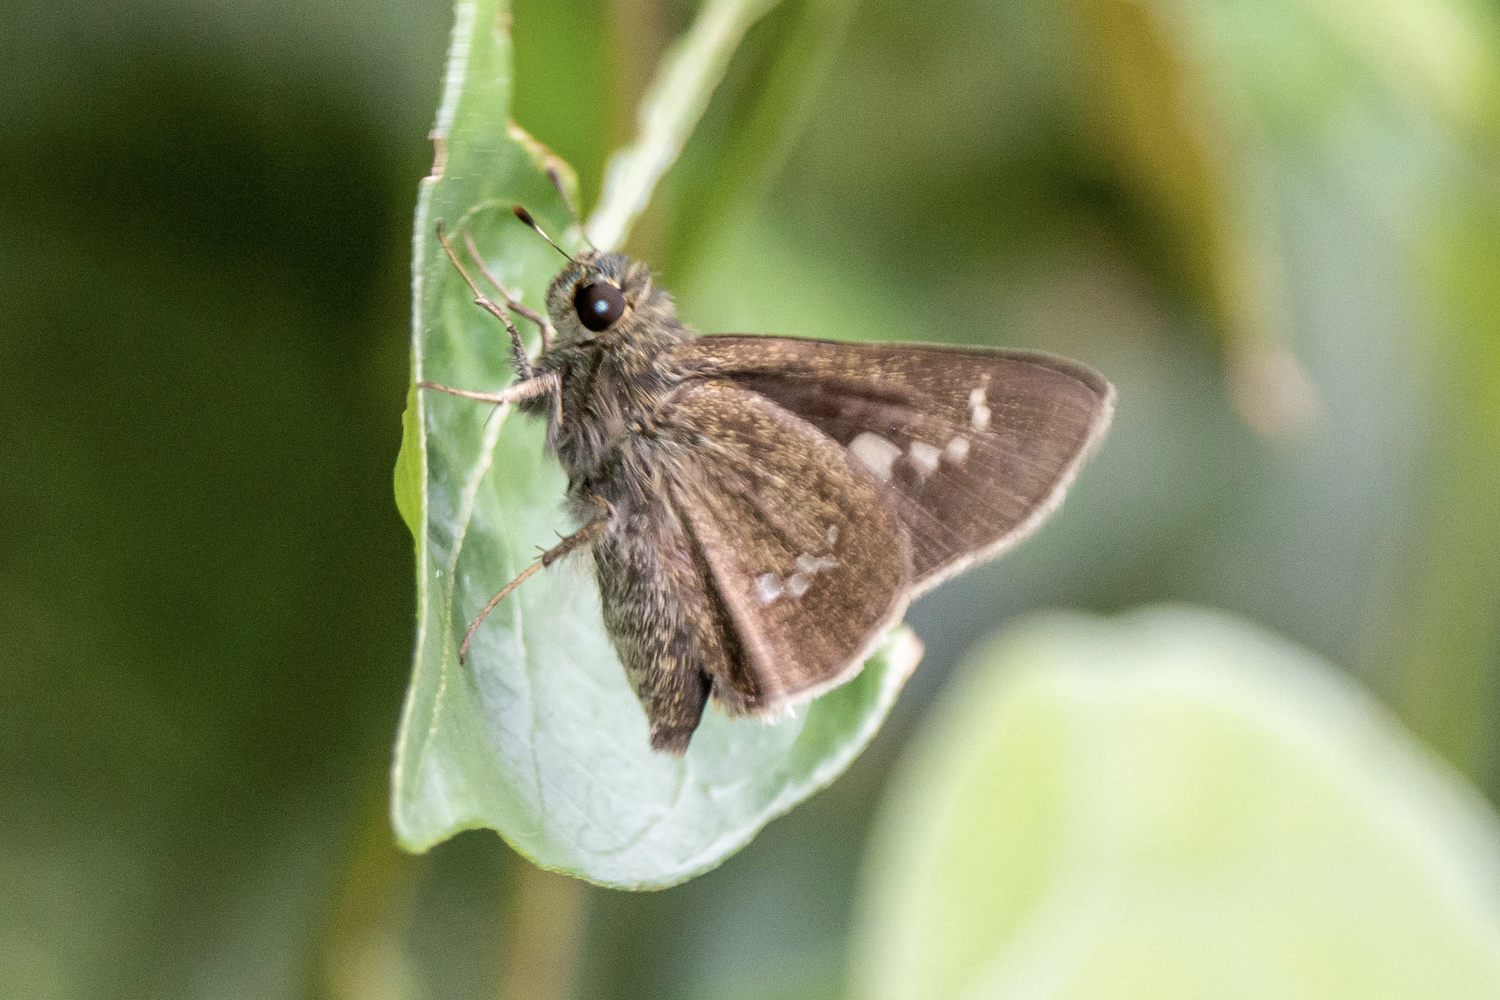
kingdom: Animalia
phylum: Arthropoda
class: Insecta
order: Lepidoptera
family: Hesperiidae
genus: Parnara
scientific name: Parnara ganga
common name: Continental swift
